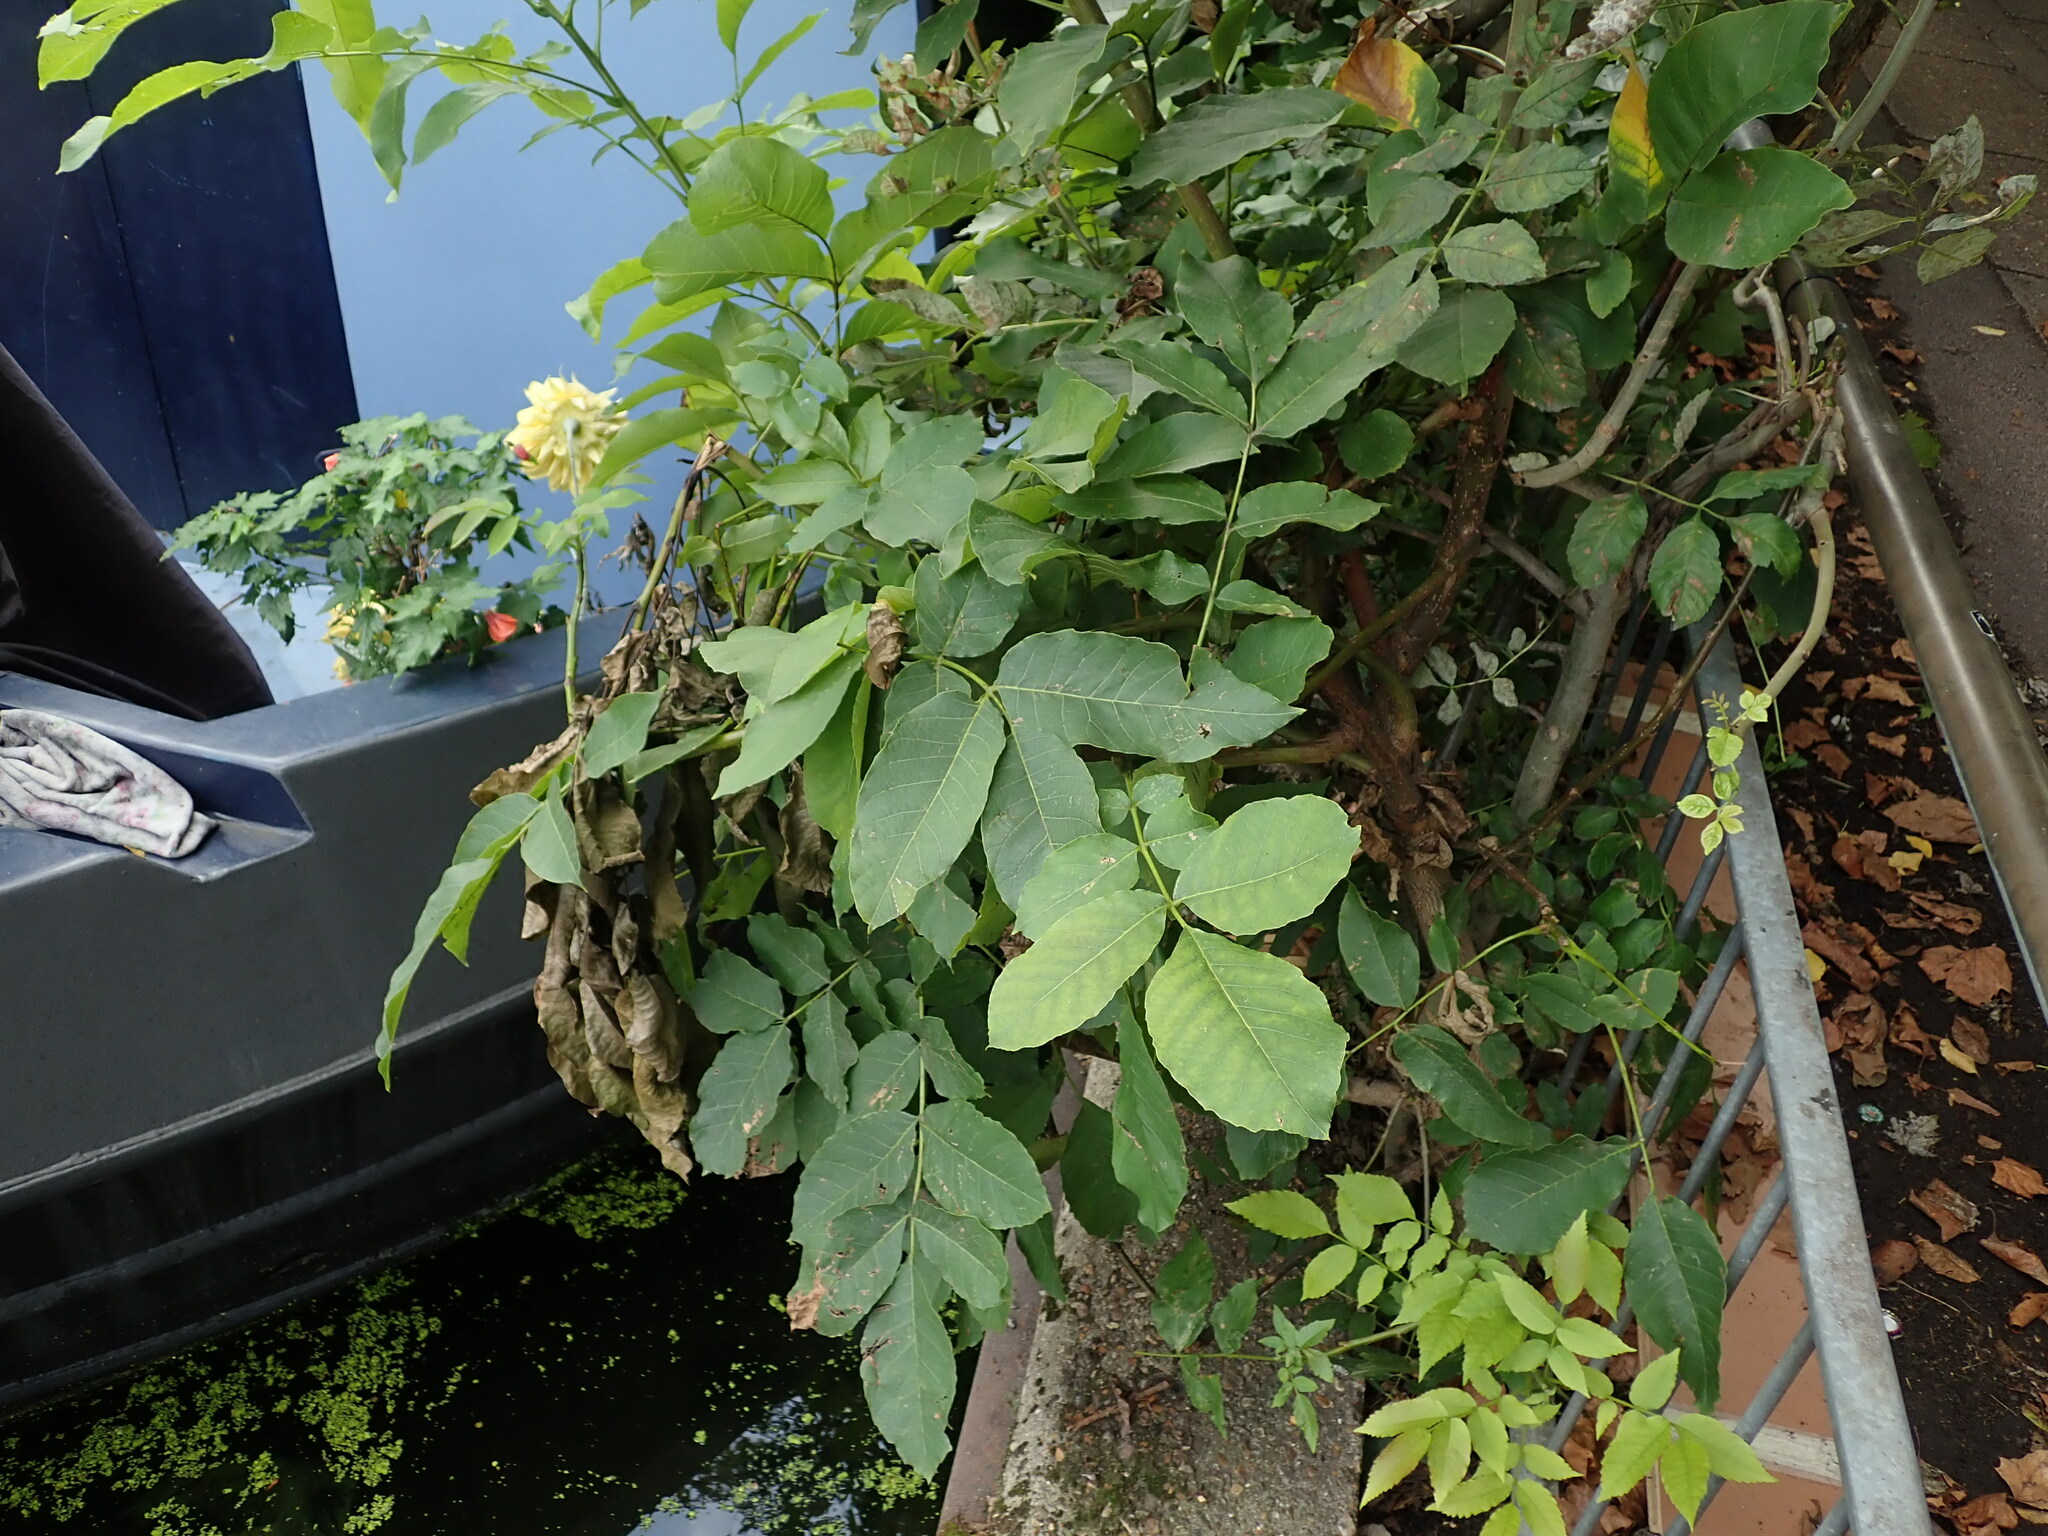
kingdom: Plantae
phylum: Tracheophyta
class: Magnoliopsida
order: Fagales
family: Juglandaceae
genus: Juglans
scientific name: Juglans regia
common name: Walnut
